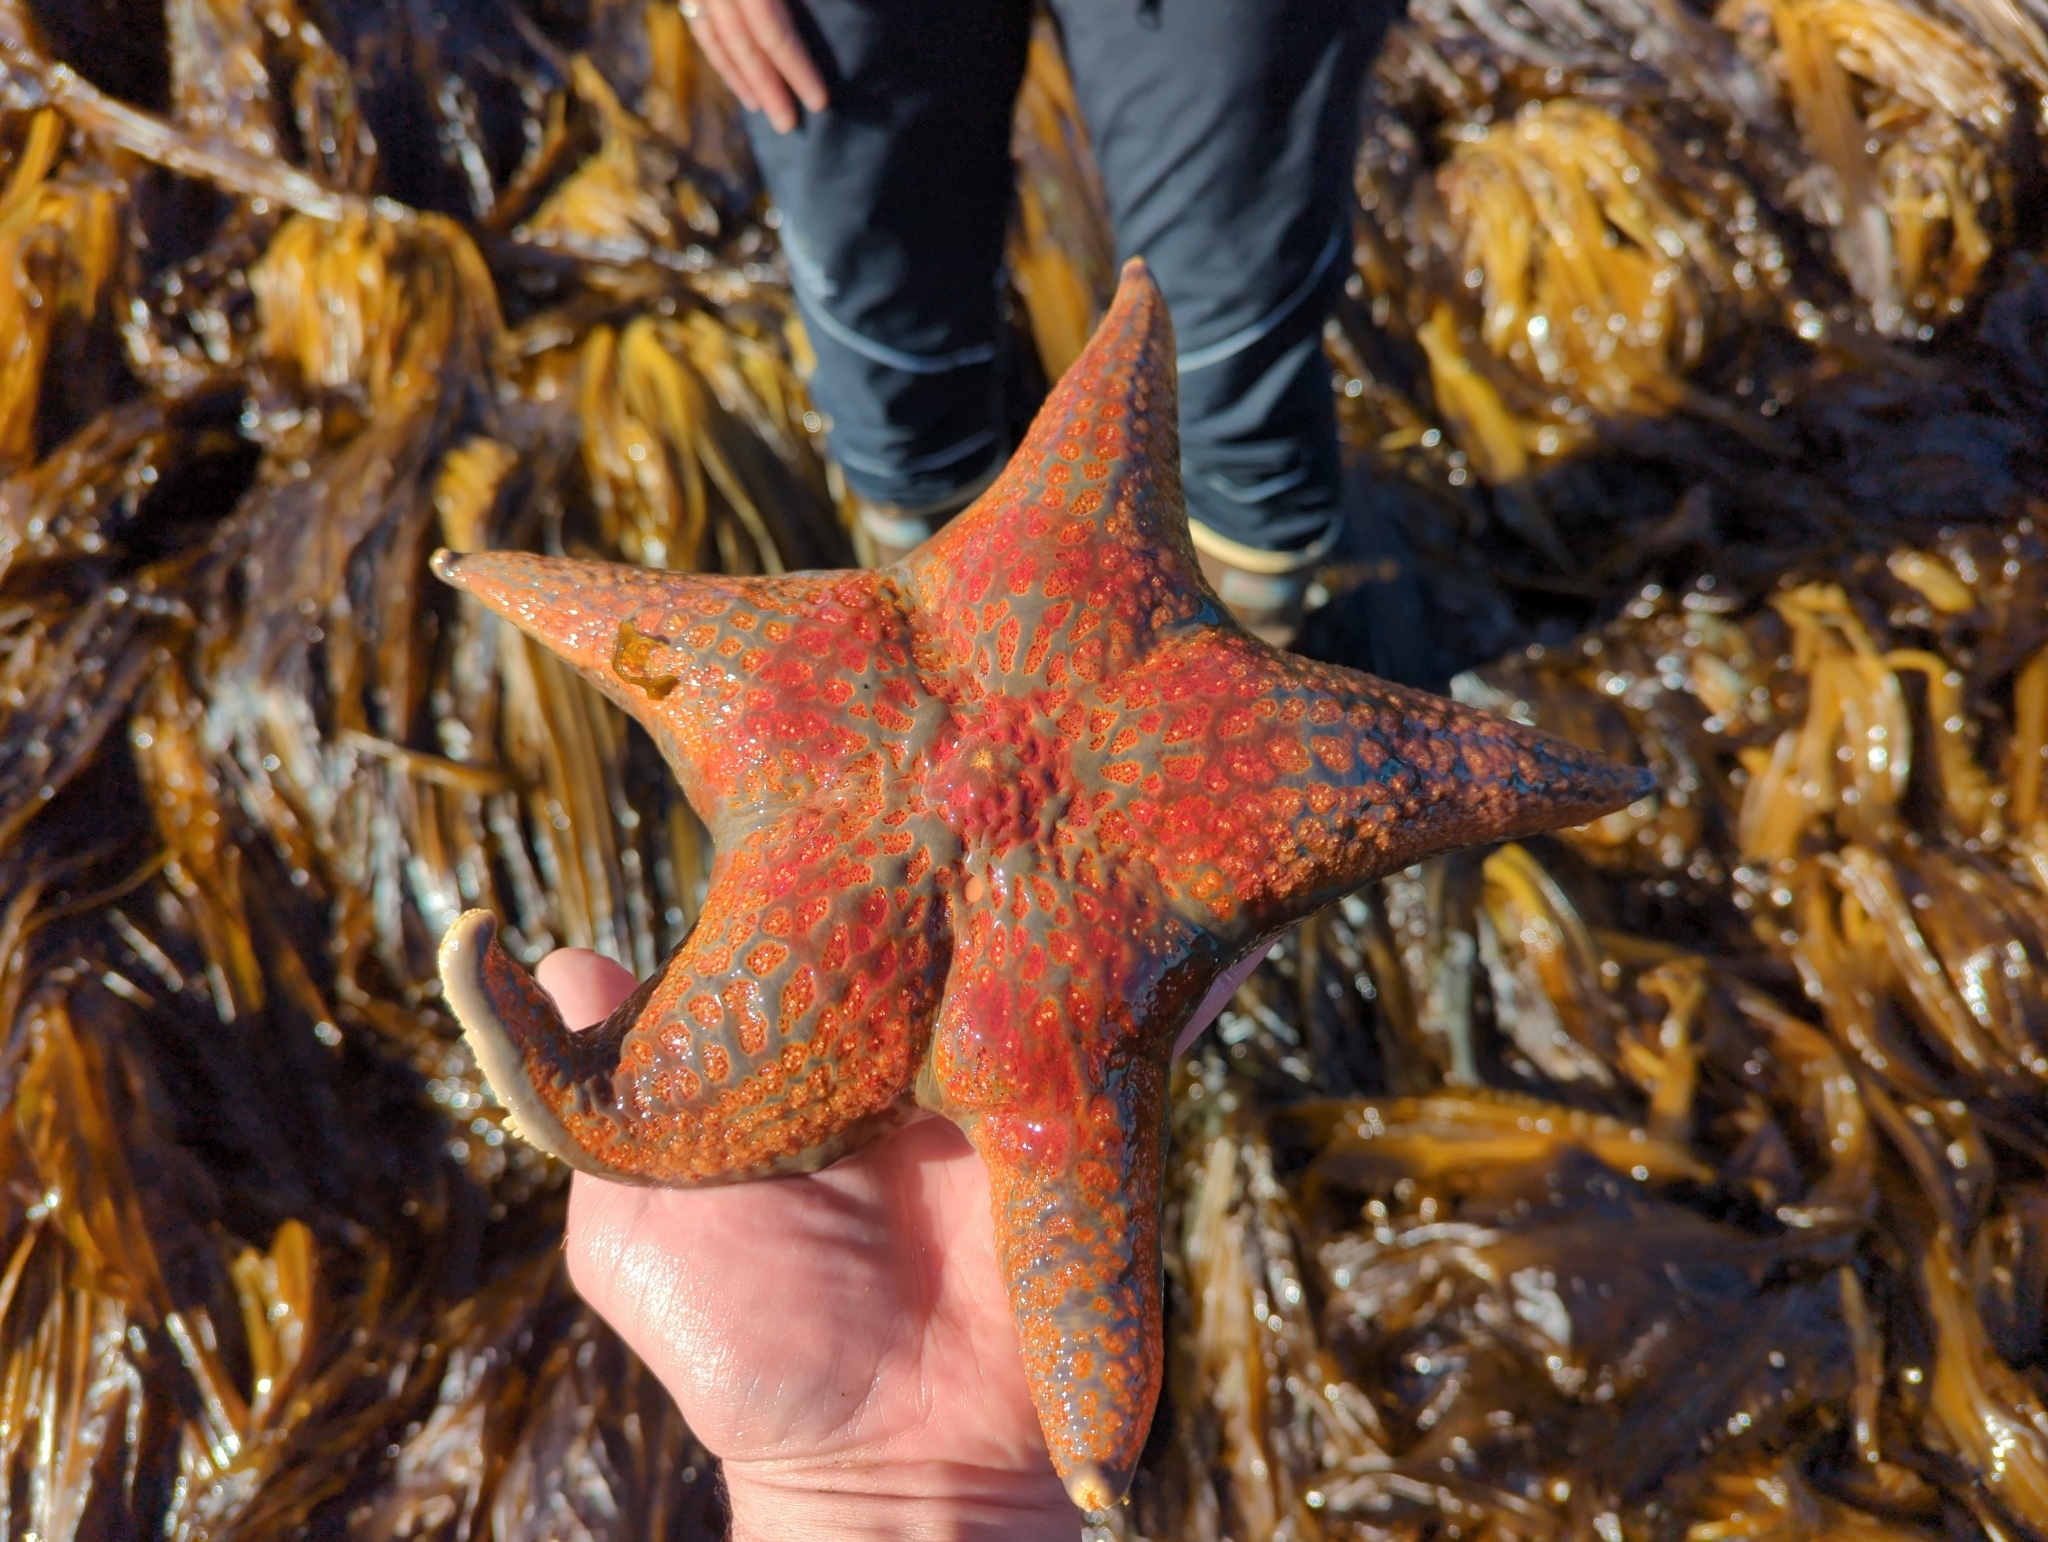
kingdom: Animalia
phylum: Echinodermata
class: Asteroidea
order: Valvatida
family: Asteropseidae
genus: Dermasterias
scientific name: Dermasterias imbricata
